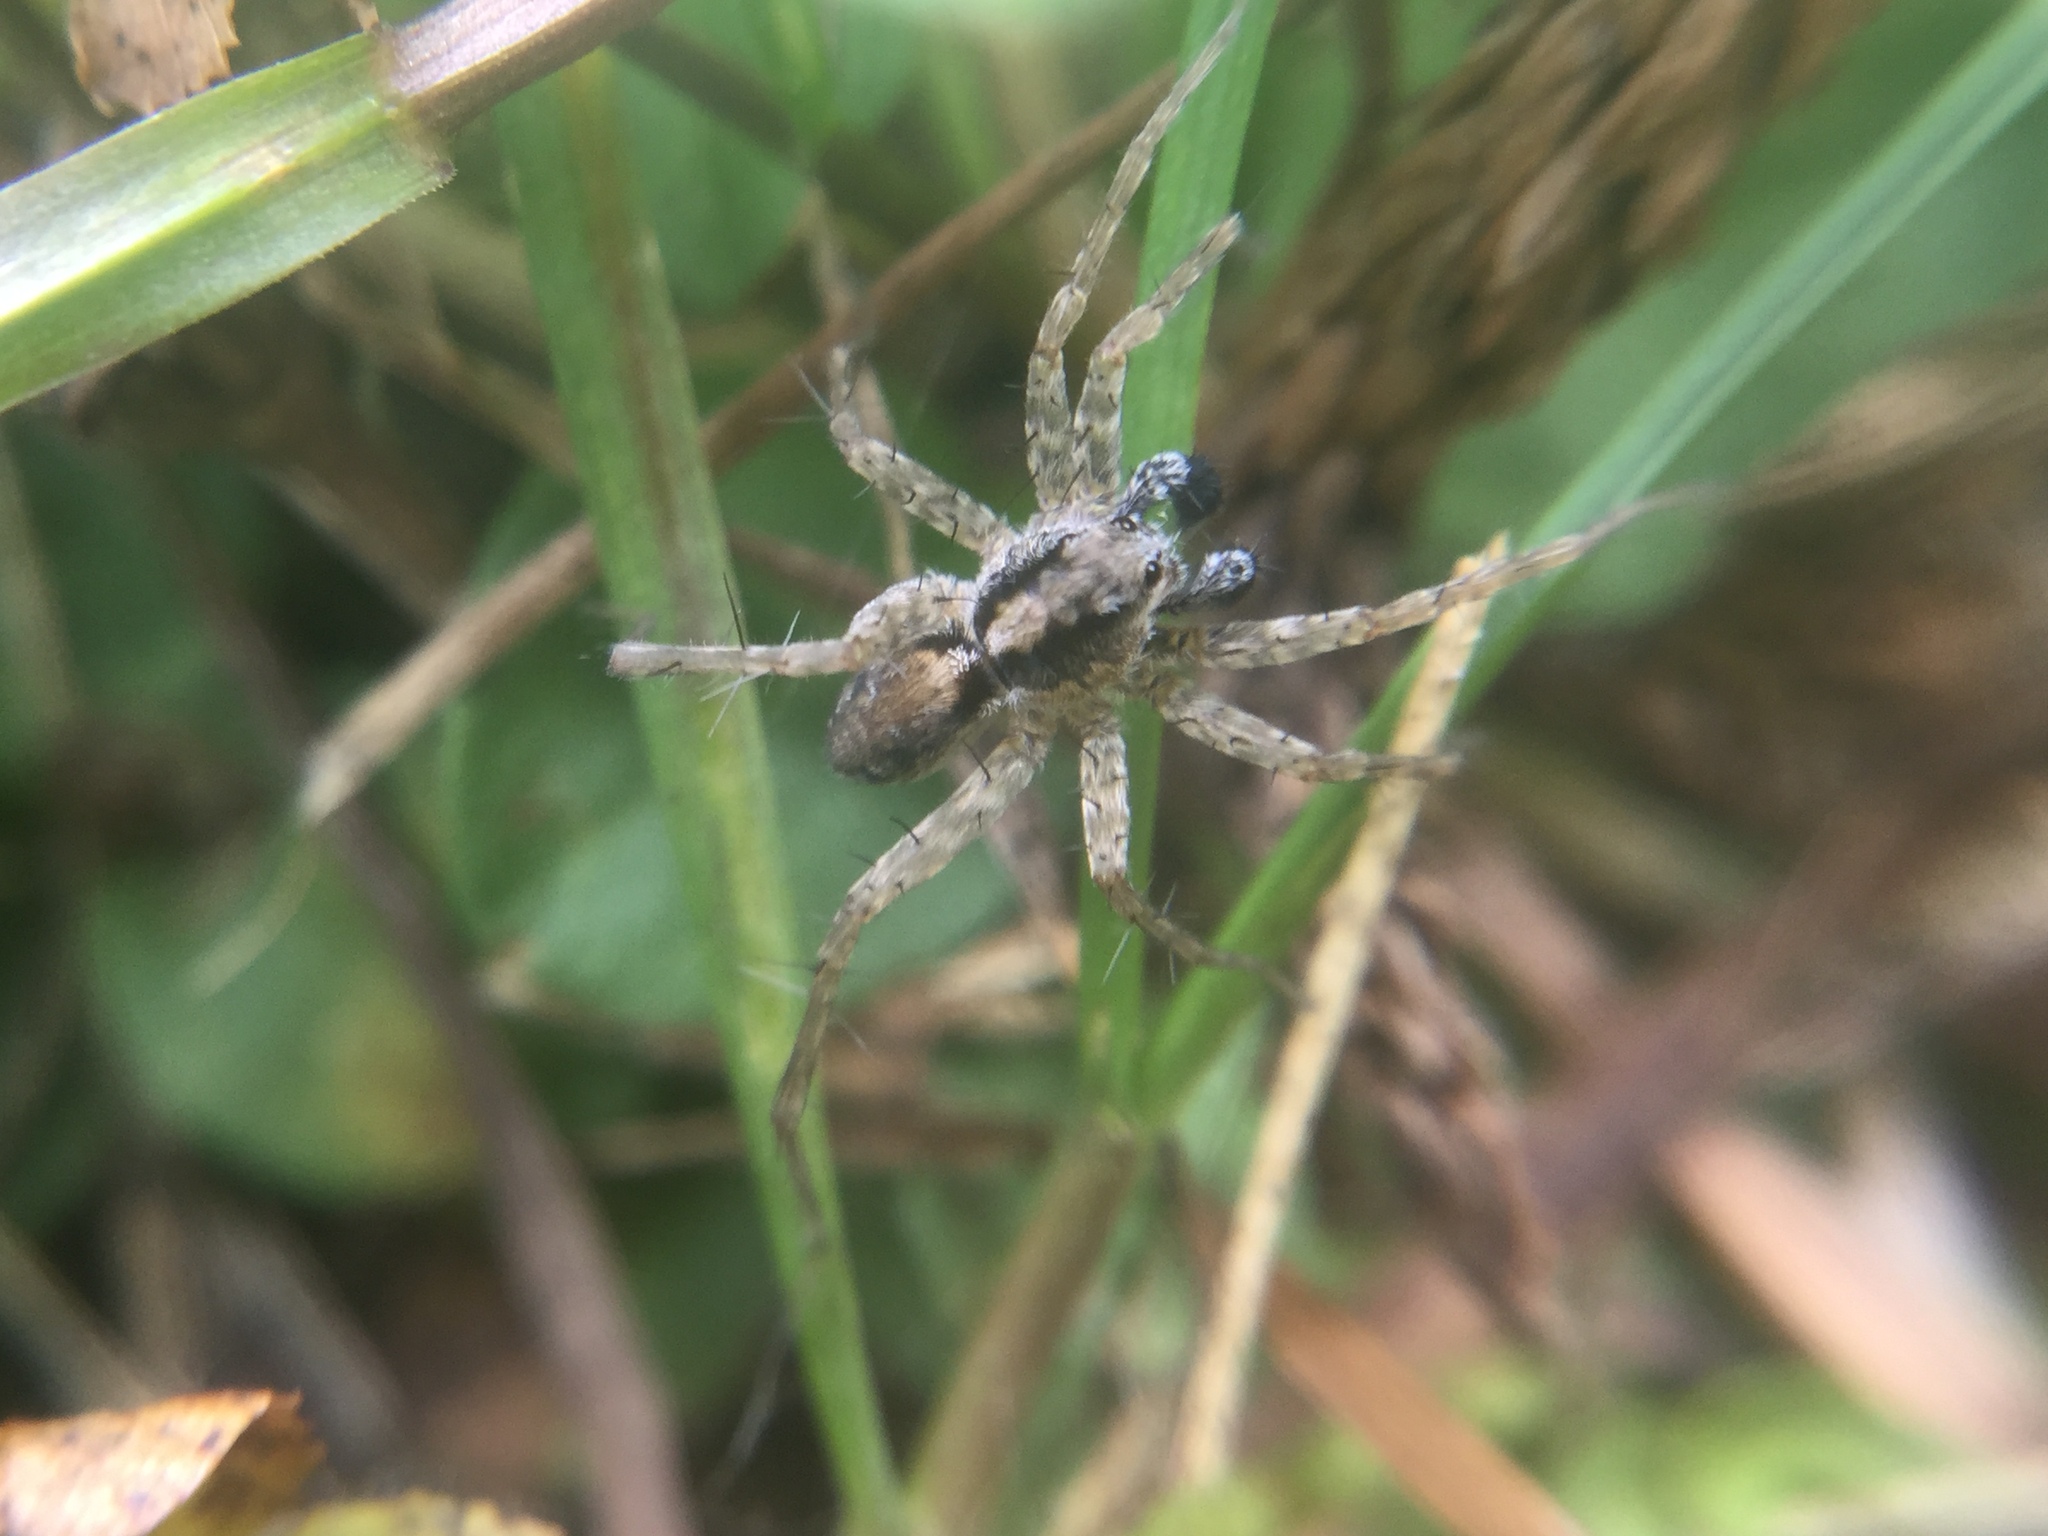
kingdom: Animalia
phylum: Arthropoda
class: Arachnida
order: Araneae
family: Lycosidae
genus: Pardosa
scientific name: Pardosa milvina
